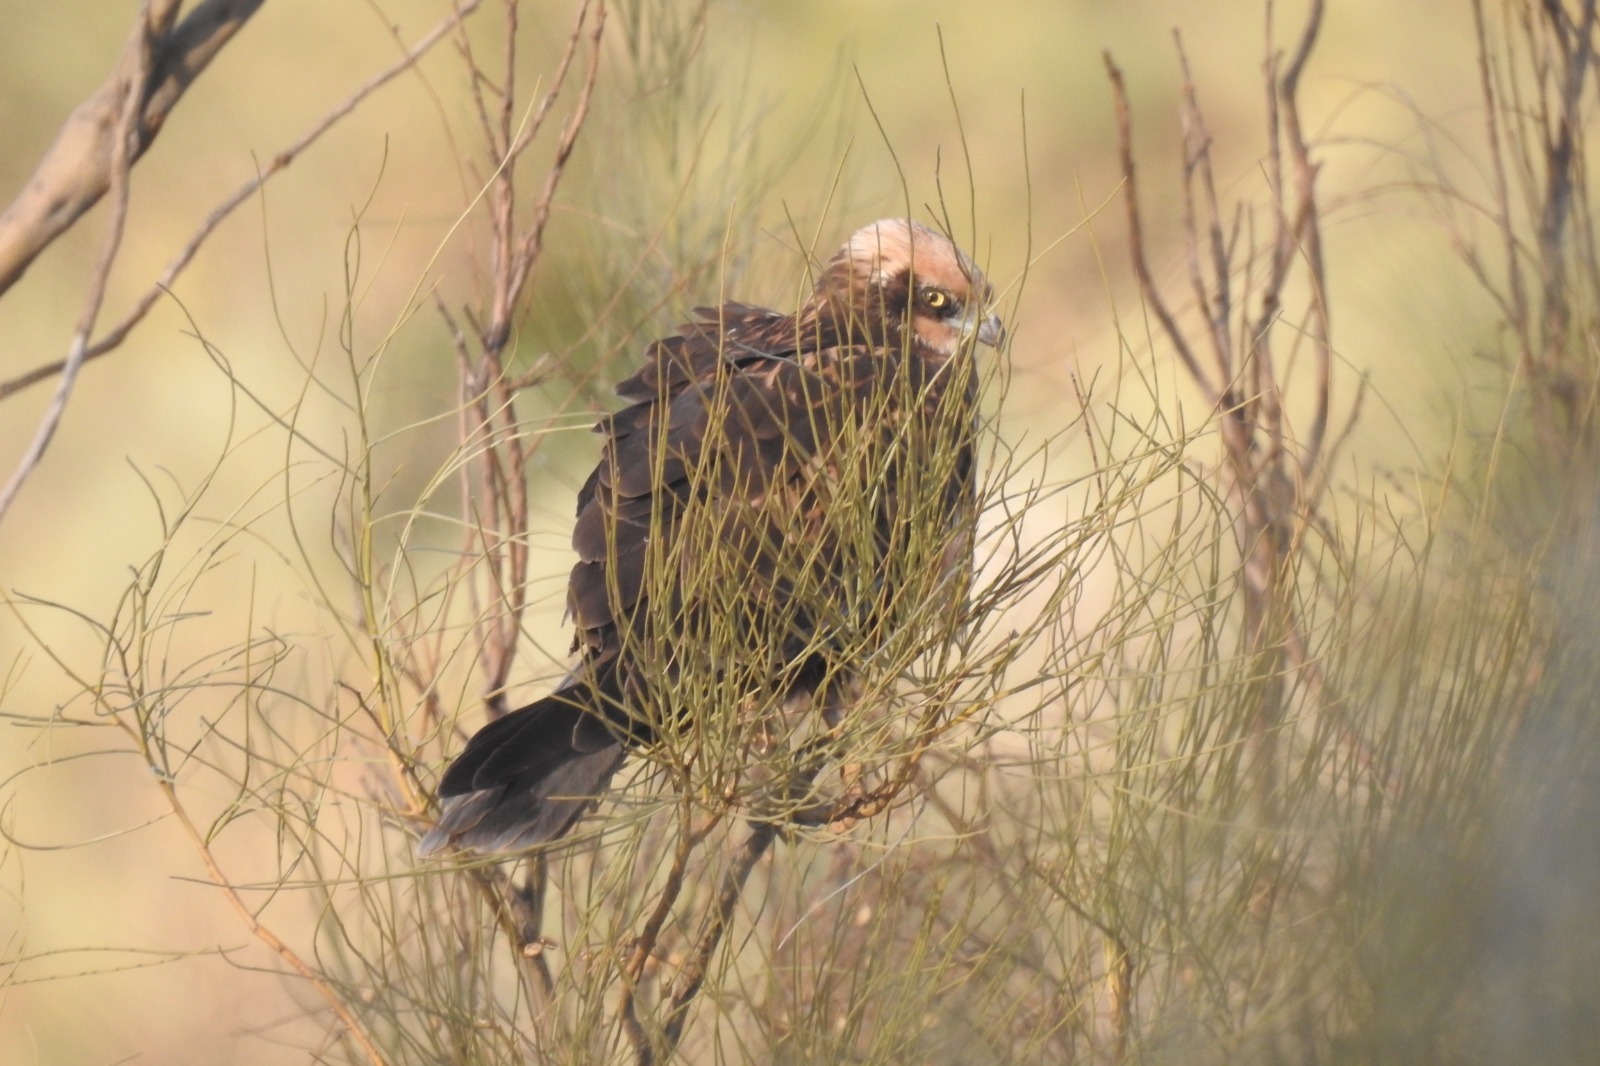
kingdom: Animalia
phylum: Chordata
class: Aves
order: Accipitriformes
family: Accipitridae
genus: Circus
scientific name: Circus aeruginosus
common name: Western marsh harrier
